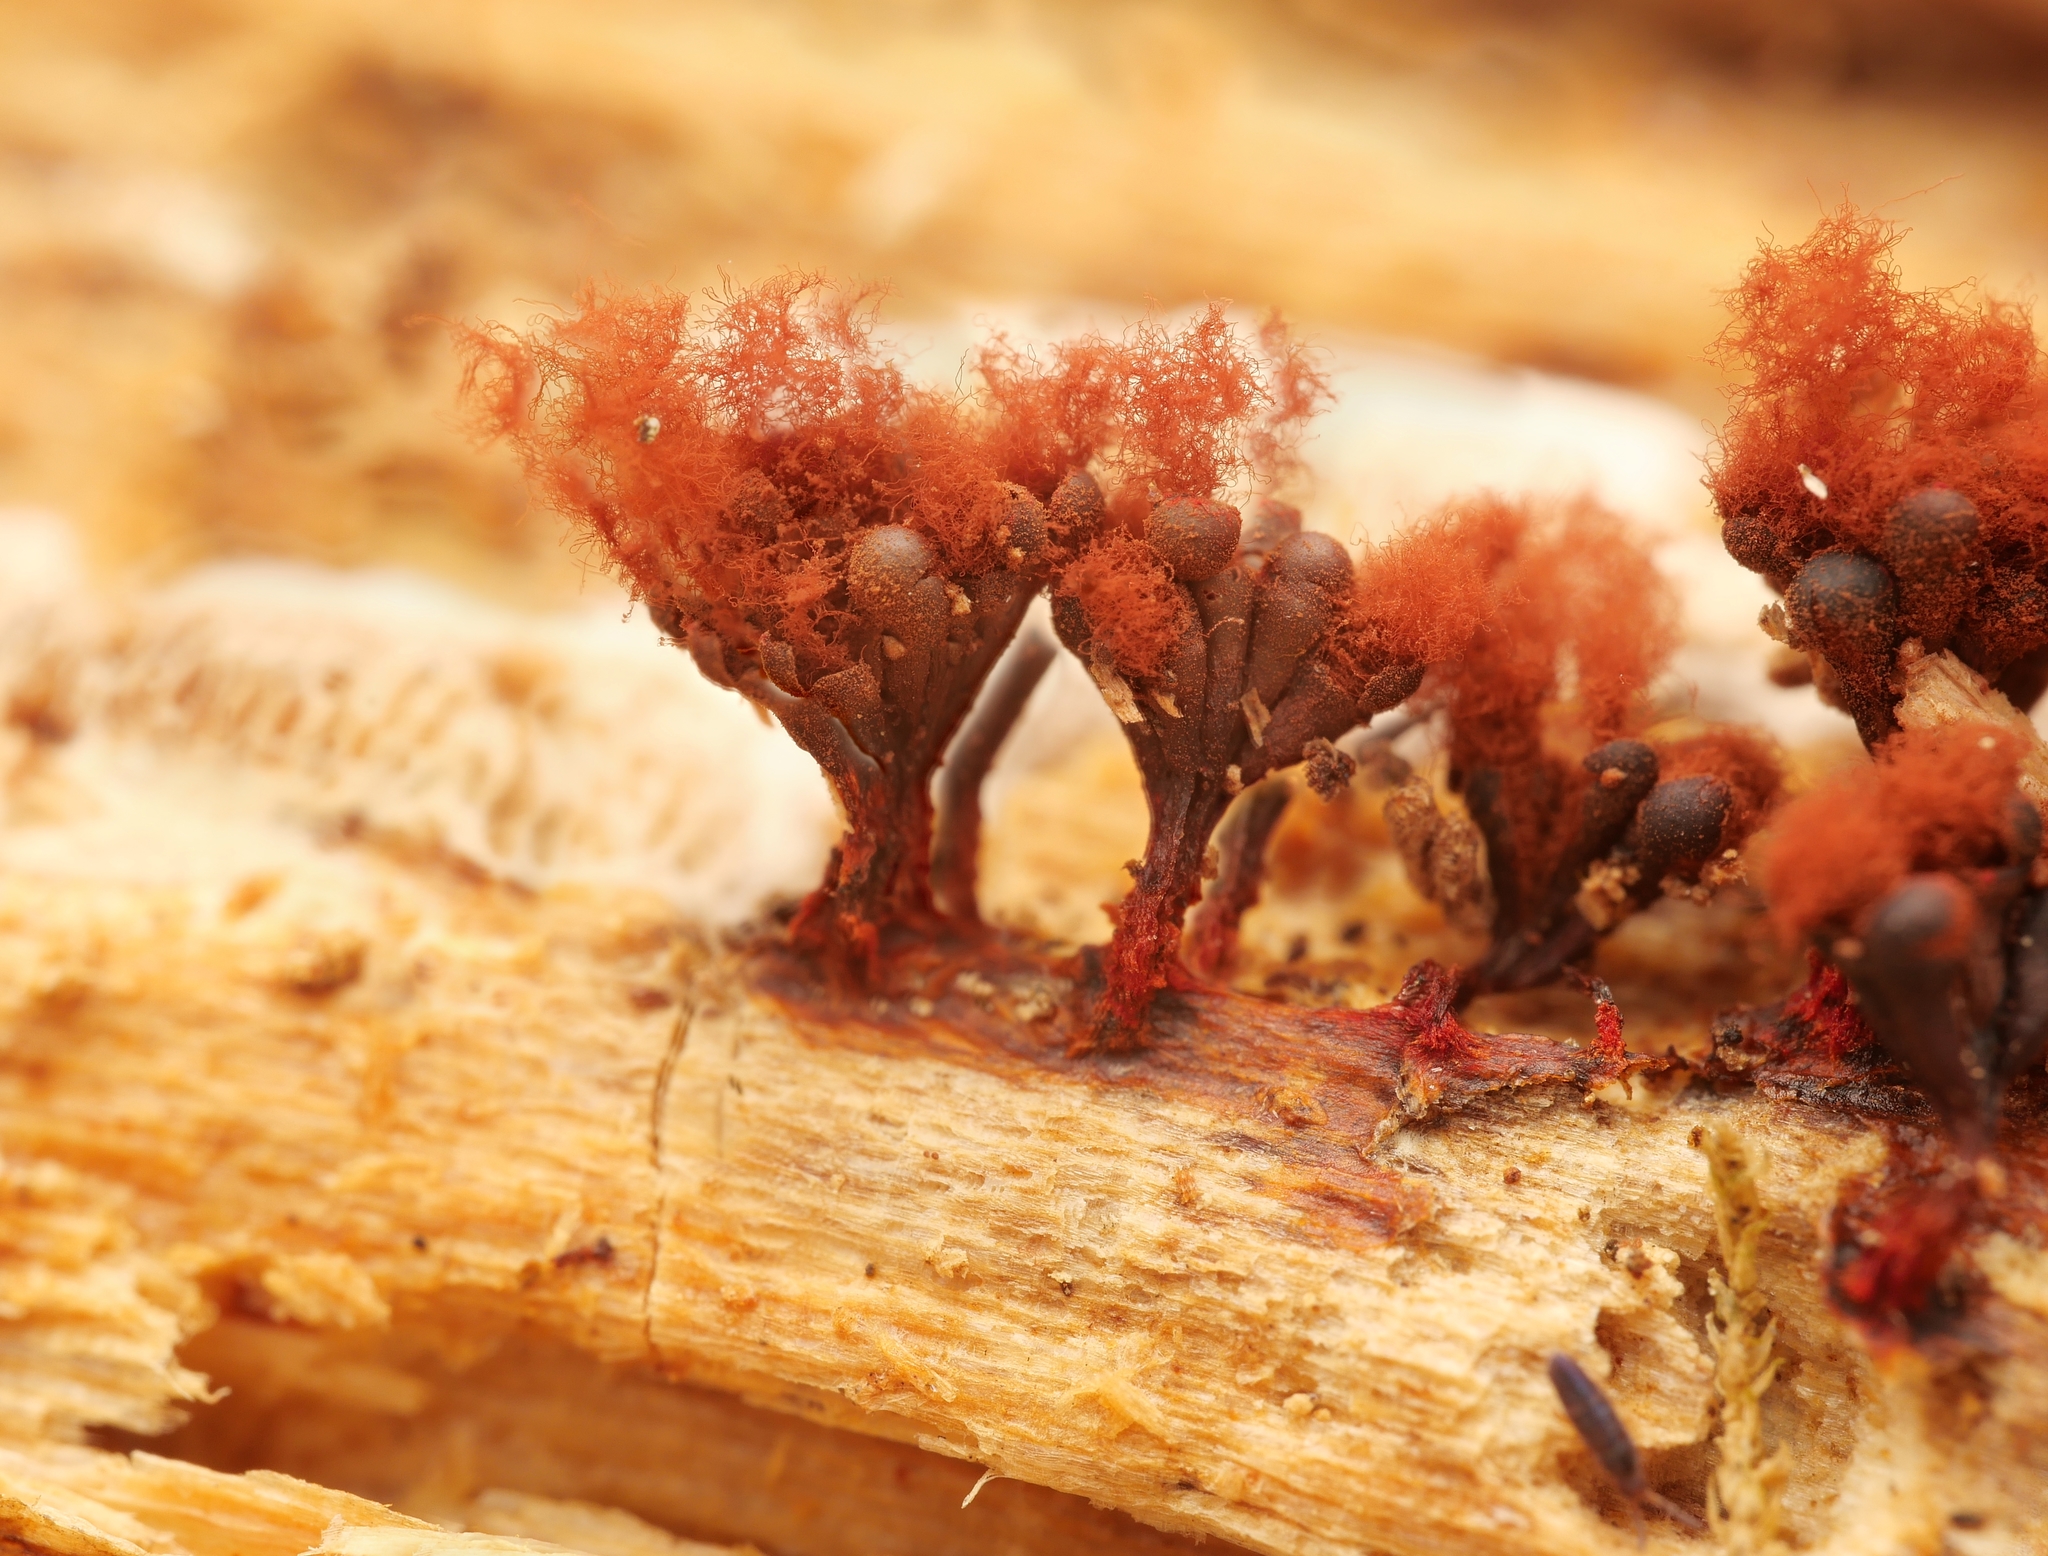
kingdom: Protozoa
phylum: Mycetozoa
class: Myxomycetes
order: Trichiales
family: Trichiaceae
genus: Metatrichia
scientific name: Metatrichia vesparia
